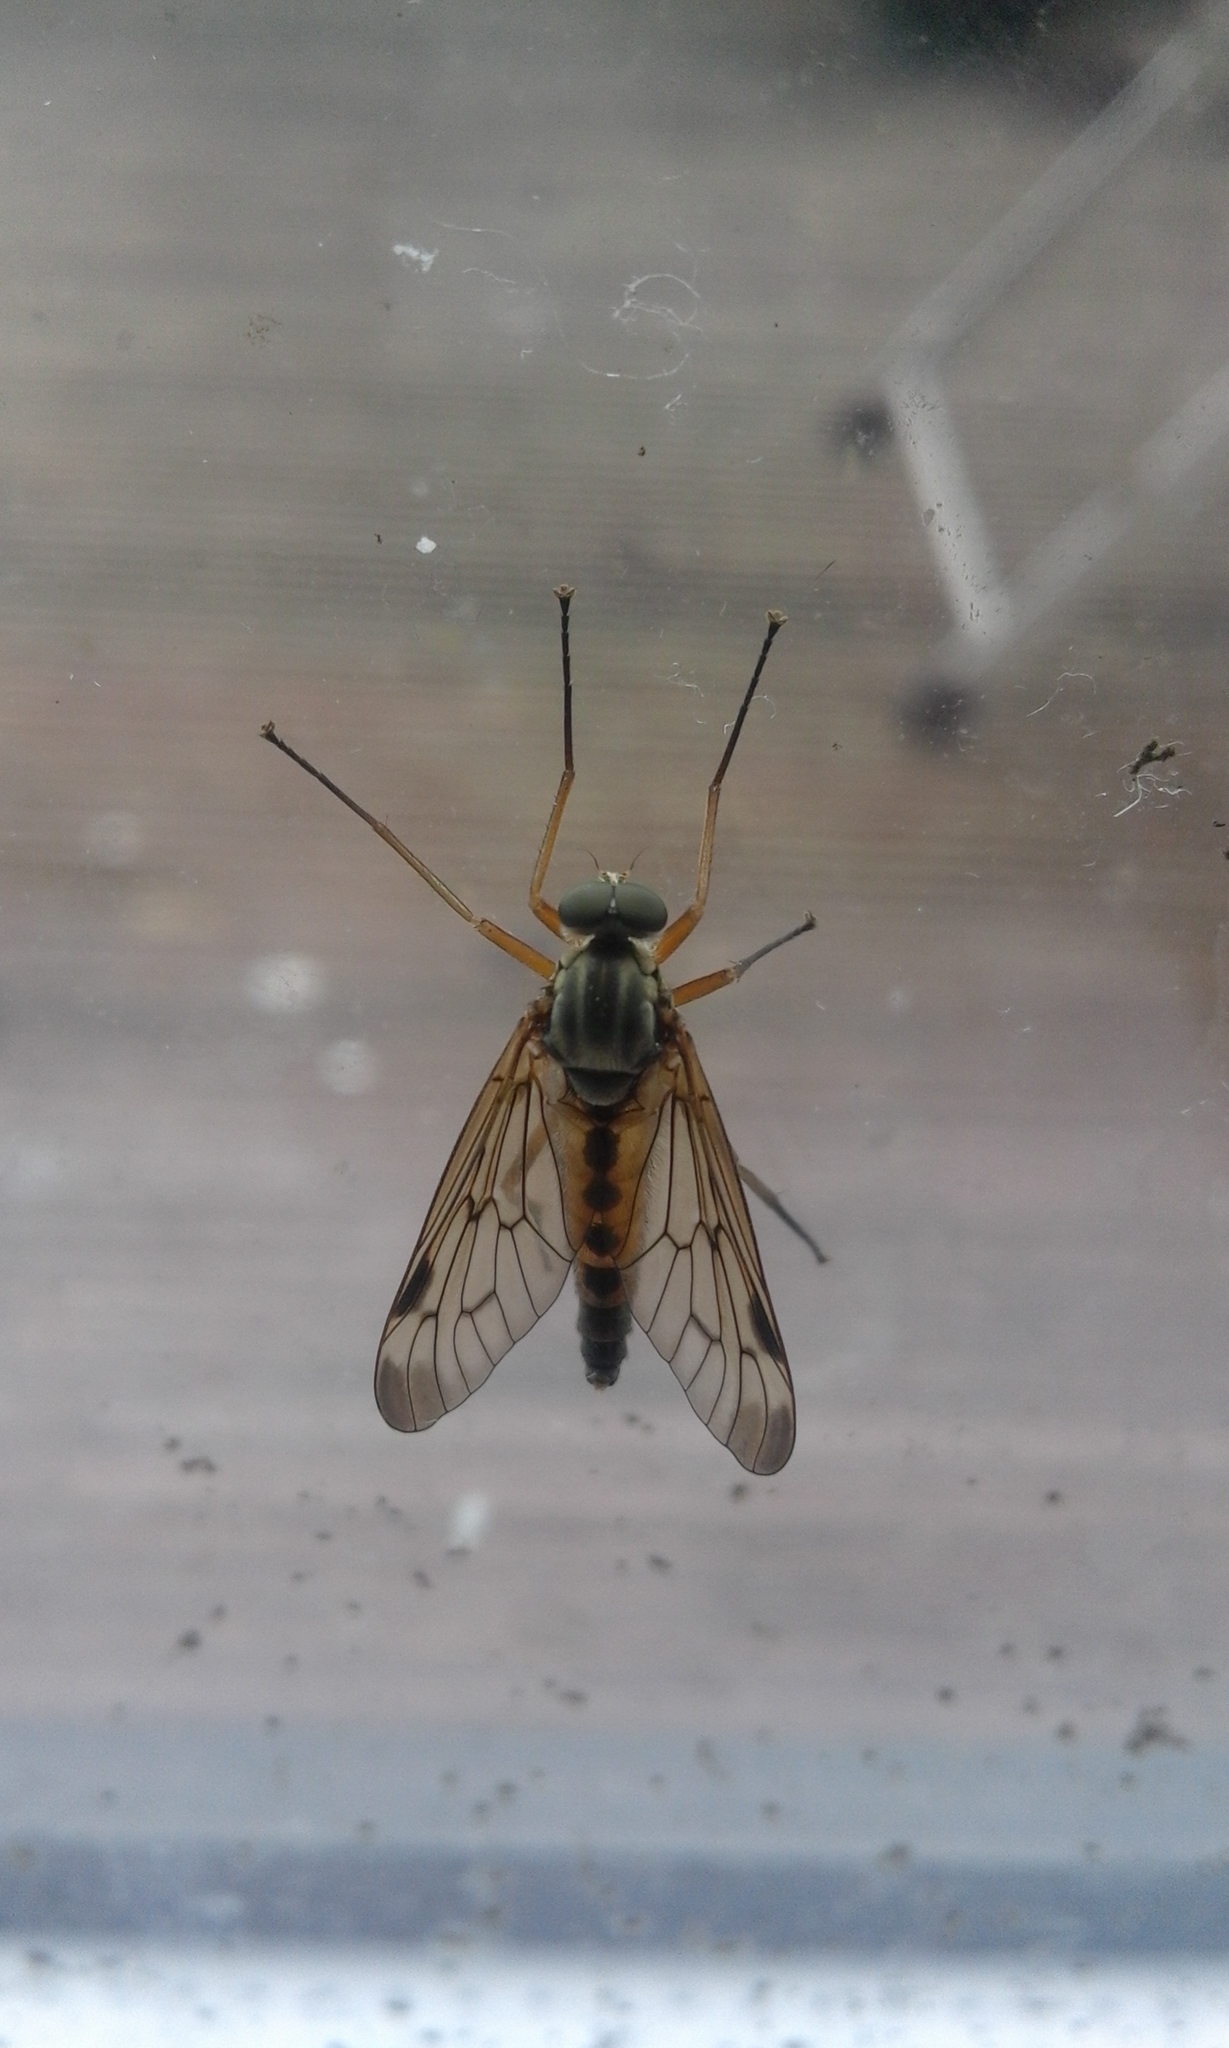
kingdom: Animalia
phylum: Arthropoda
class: Insecta
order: Diptera
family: Rhagionidae
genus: Rhagio
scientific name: Rhagio scolopacea
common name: Downlooker snipefly
